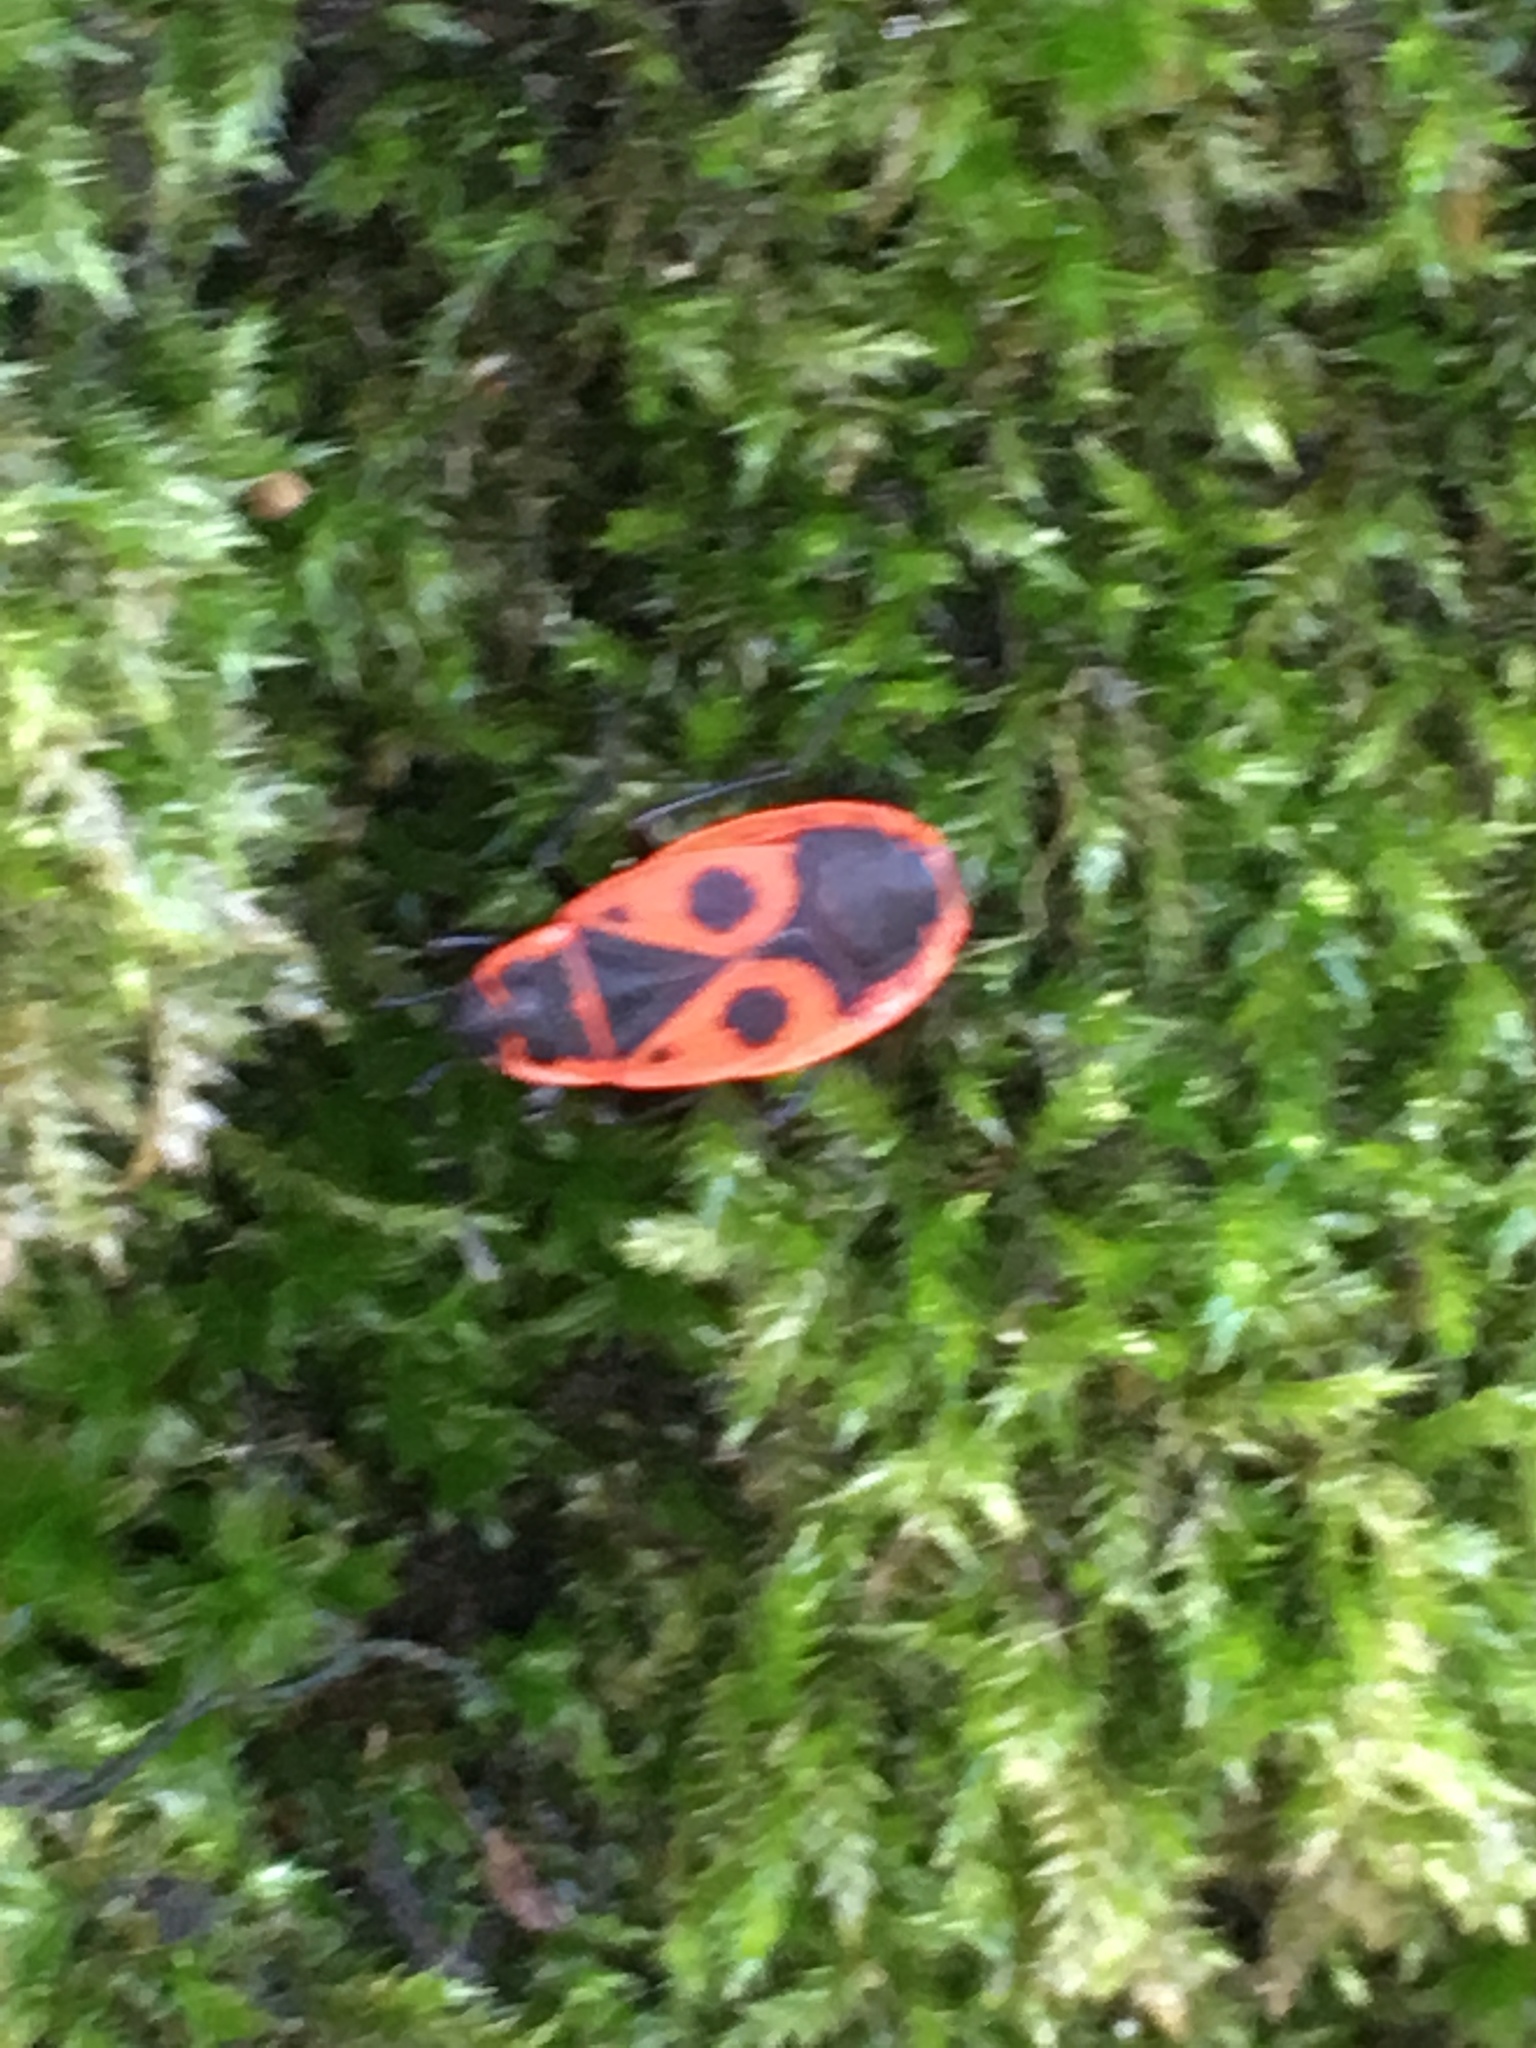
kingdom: Animalia
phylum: Arthropoda
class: Insecta
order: Hemiptera
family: Pyrrhocoridae
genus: Pyrrhocoris
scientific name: Pyrrhocoris apterus
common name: Firebug
